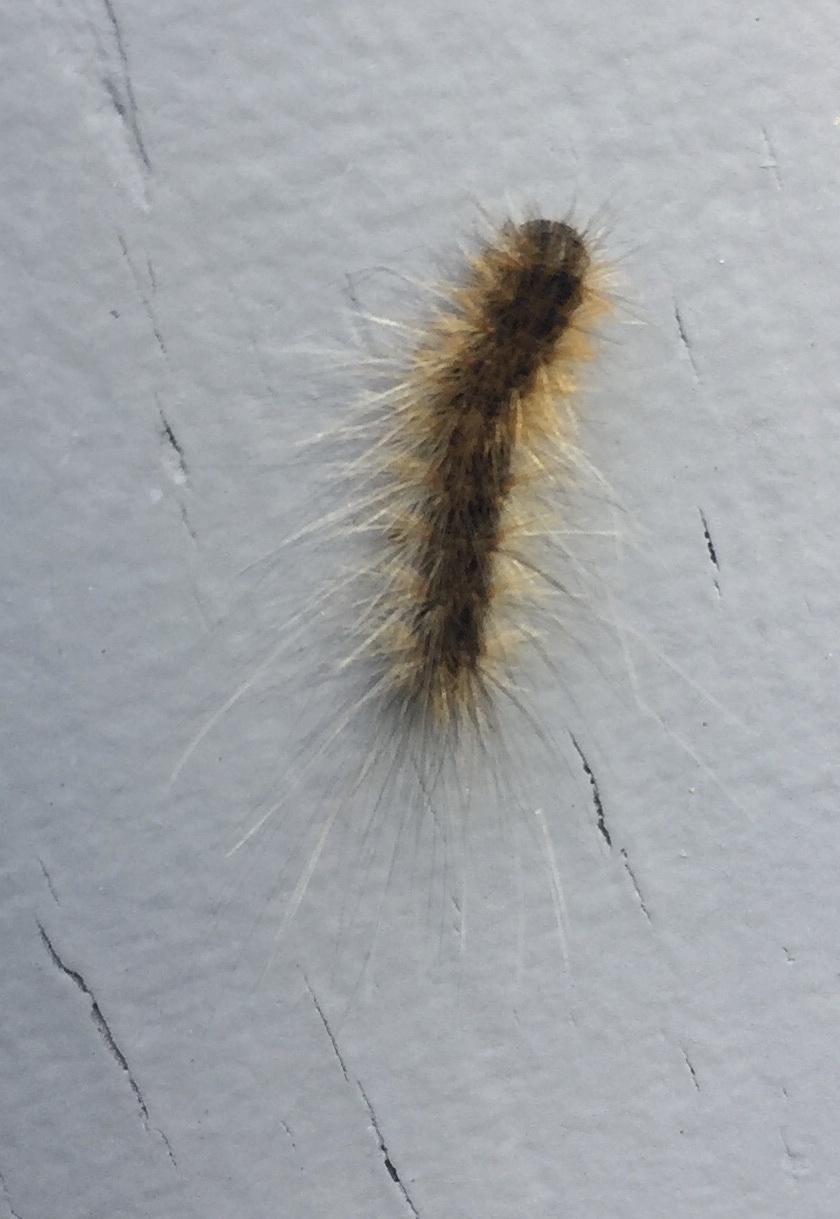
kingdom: Animalia
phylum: Arthropoda
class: Insecta
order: Lepidoptera
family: Erebidae
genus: Hyphantria
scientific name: Hyphantria cunea
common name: American white moth
